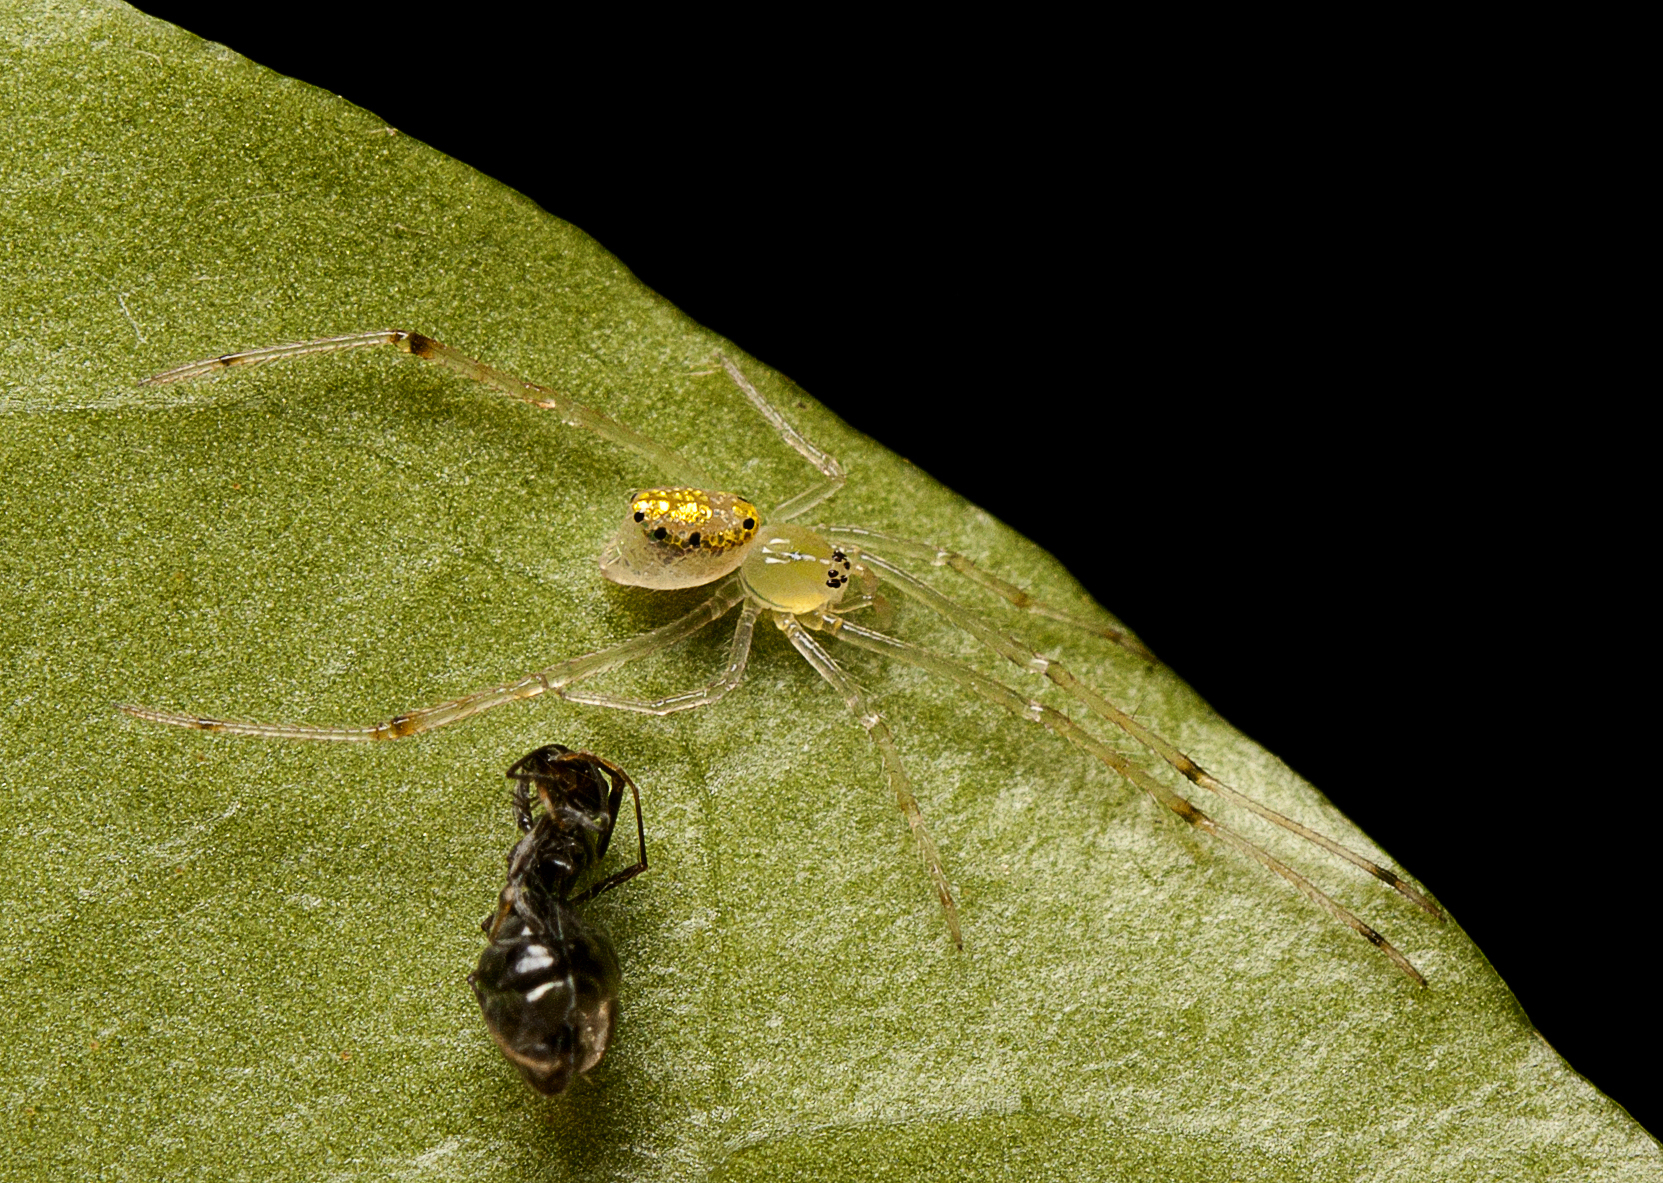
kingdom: Animalia
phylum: Arthropoda
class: Arachnida
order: Araneae
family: Theridiidae
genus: Thwaitesia
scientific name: Thwaitesia nigronodosa
